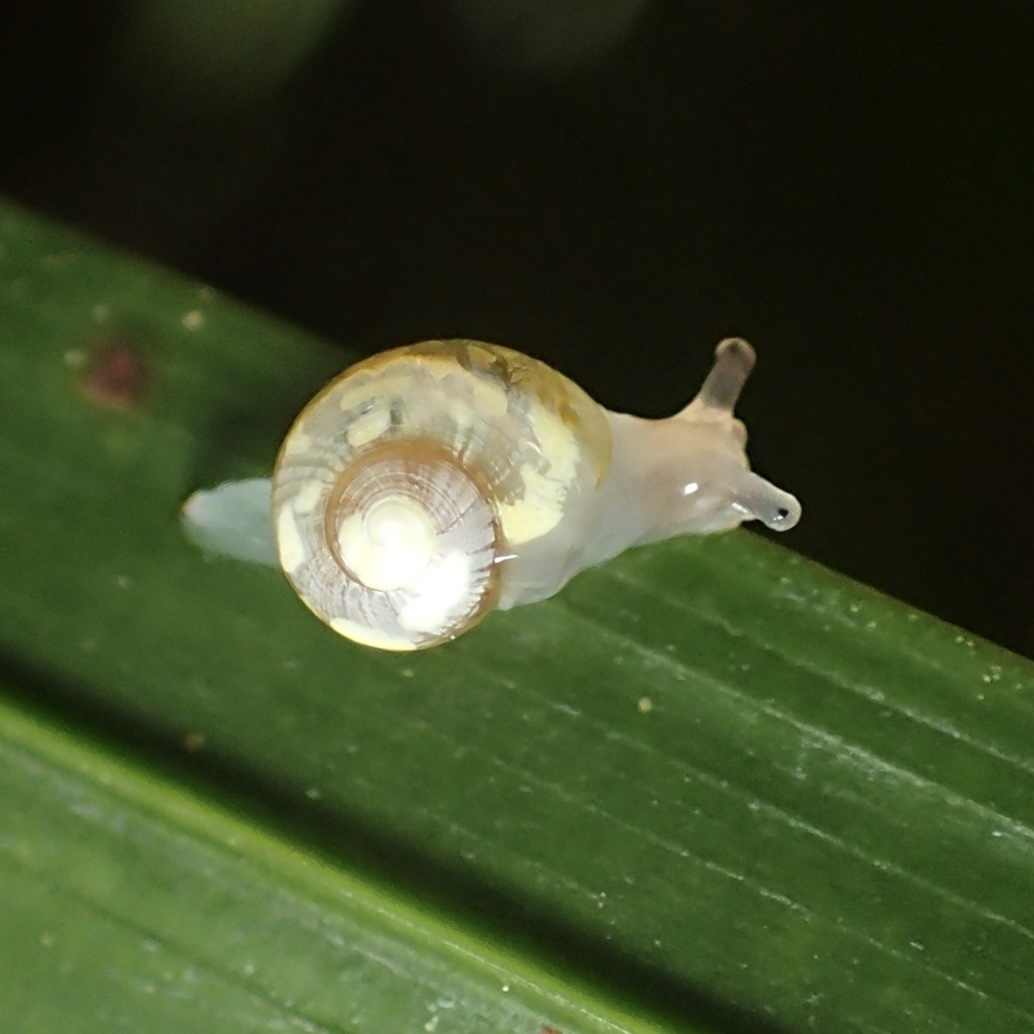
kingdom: Animalia
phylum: Mollusca
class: Gastropoda
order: Stylommatophora
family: Helicarionidae
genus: Dendrolamellaria
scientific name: Dendrolamellaria mathewsi
